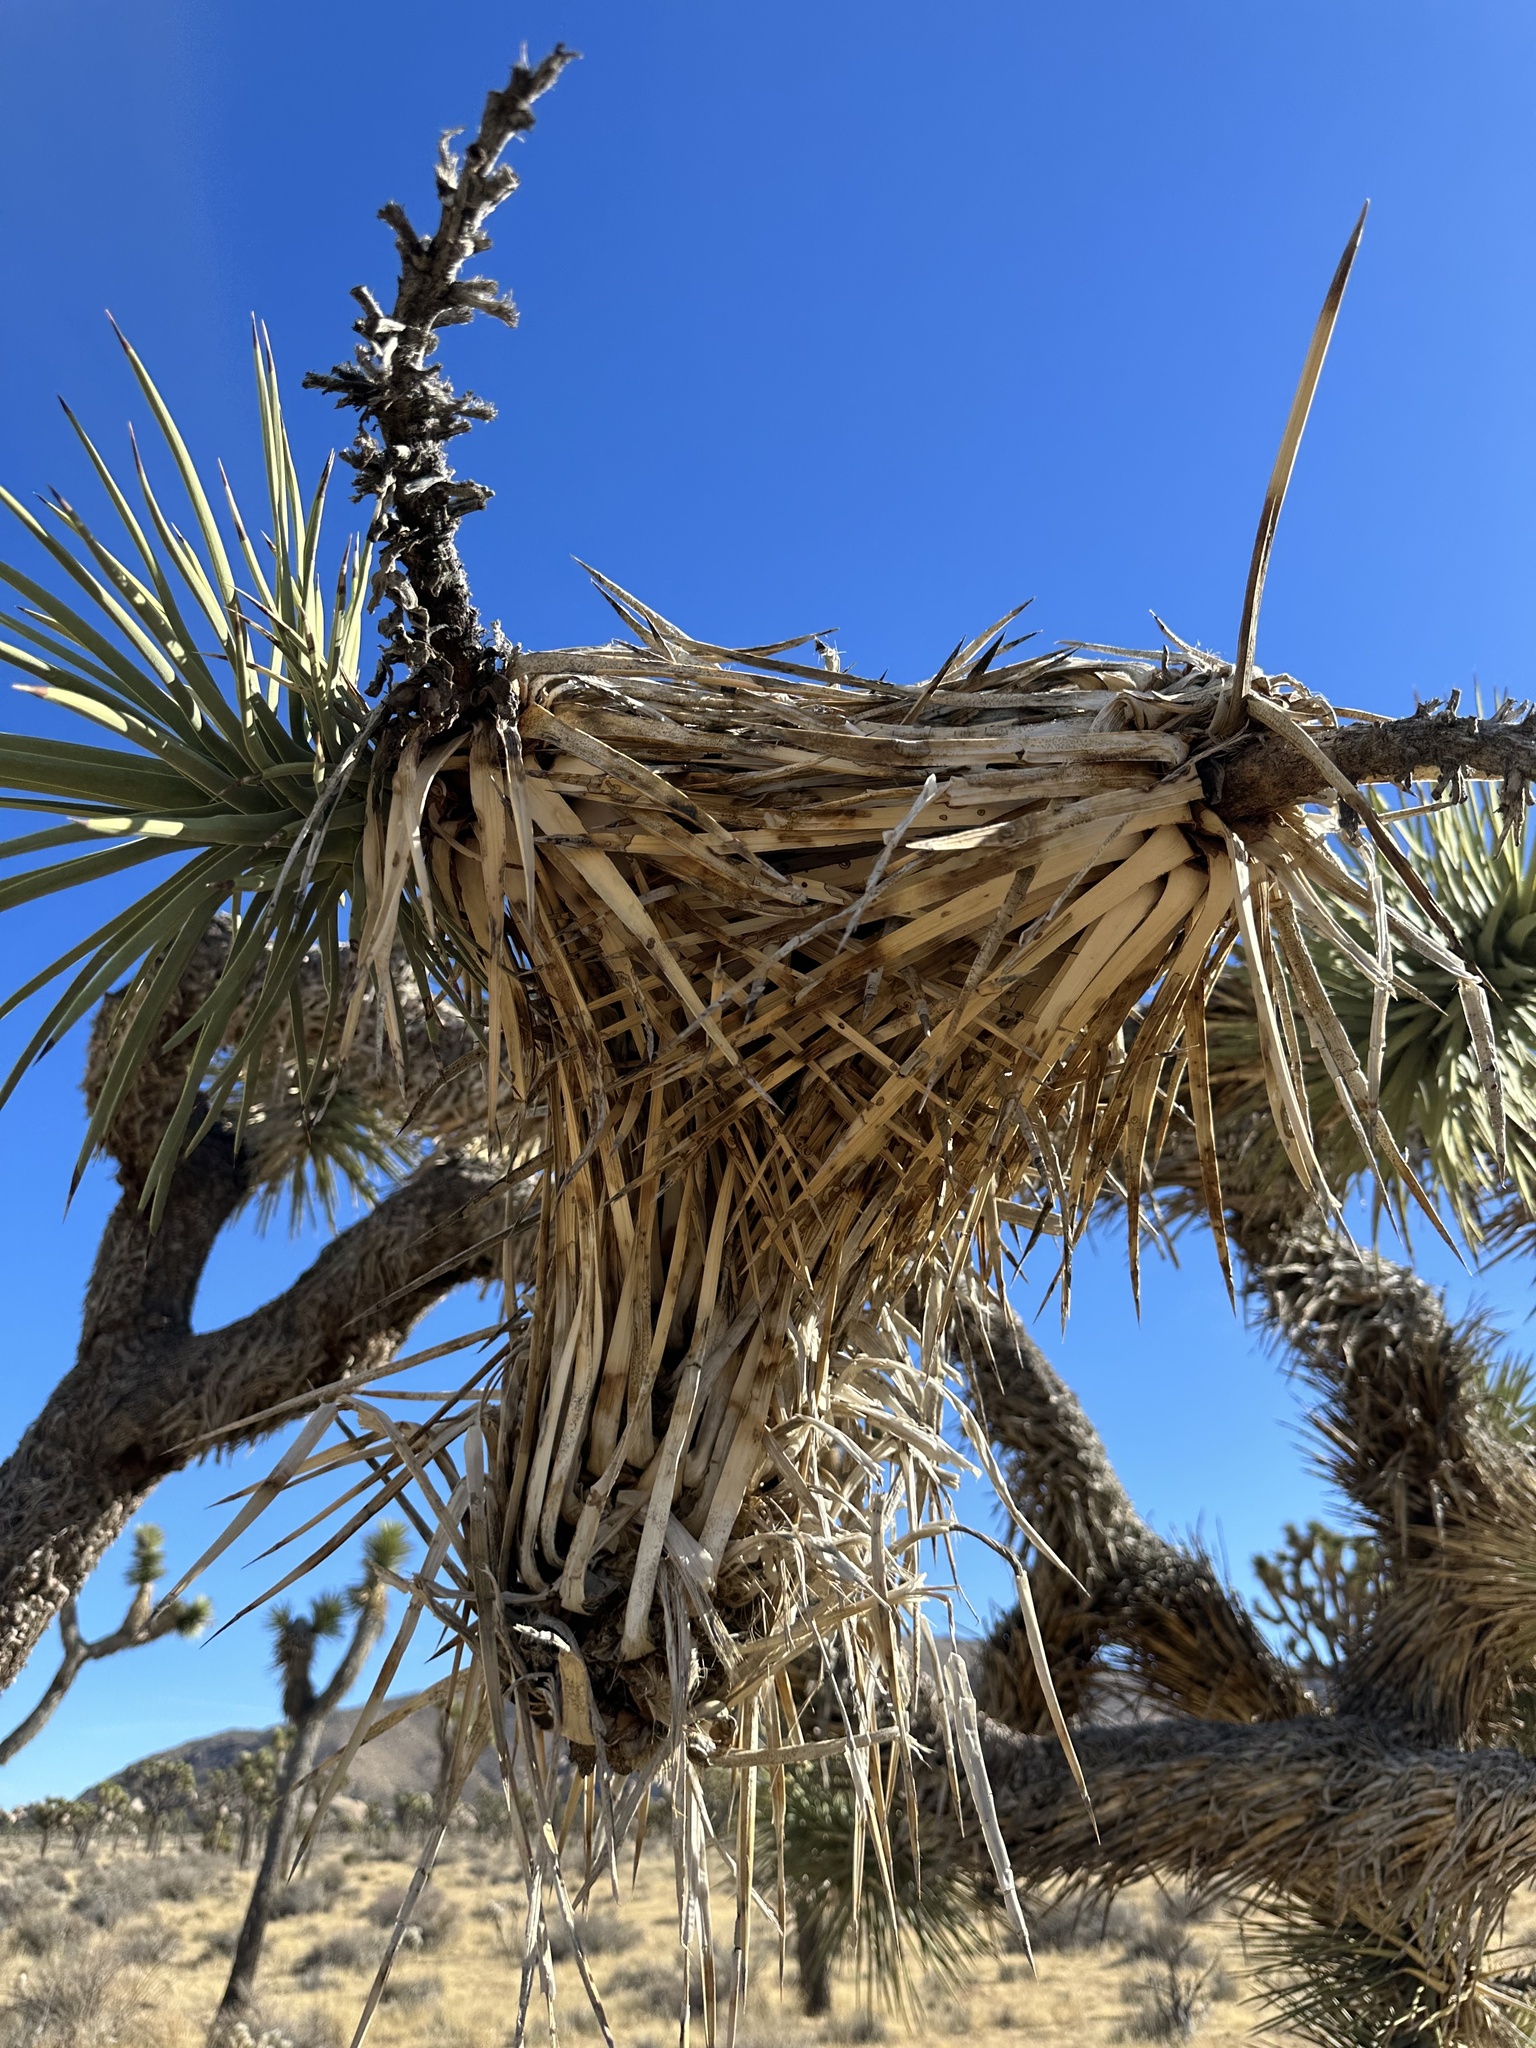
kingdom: Plantae
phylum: Tracheophyta
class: Liliopsida
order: Asparagales
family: Asparagaceae
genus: Yucca
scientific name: Yucca brevifolia
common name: Joshua tree
